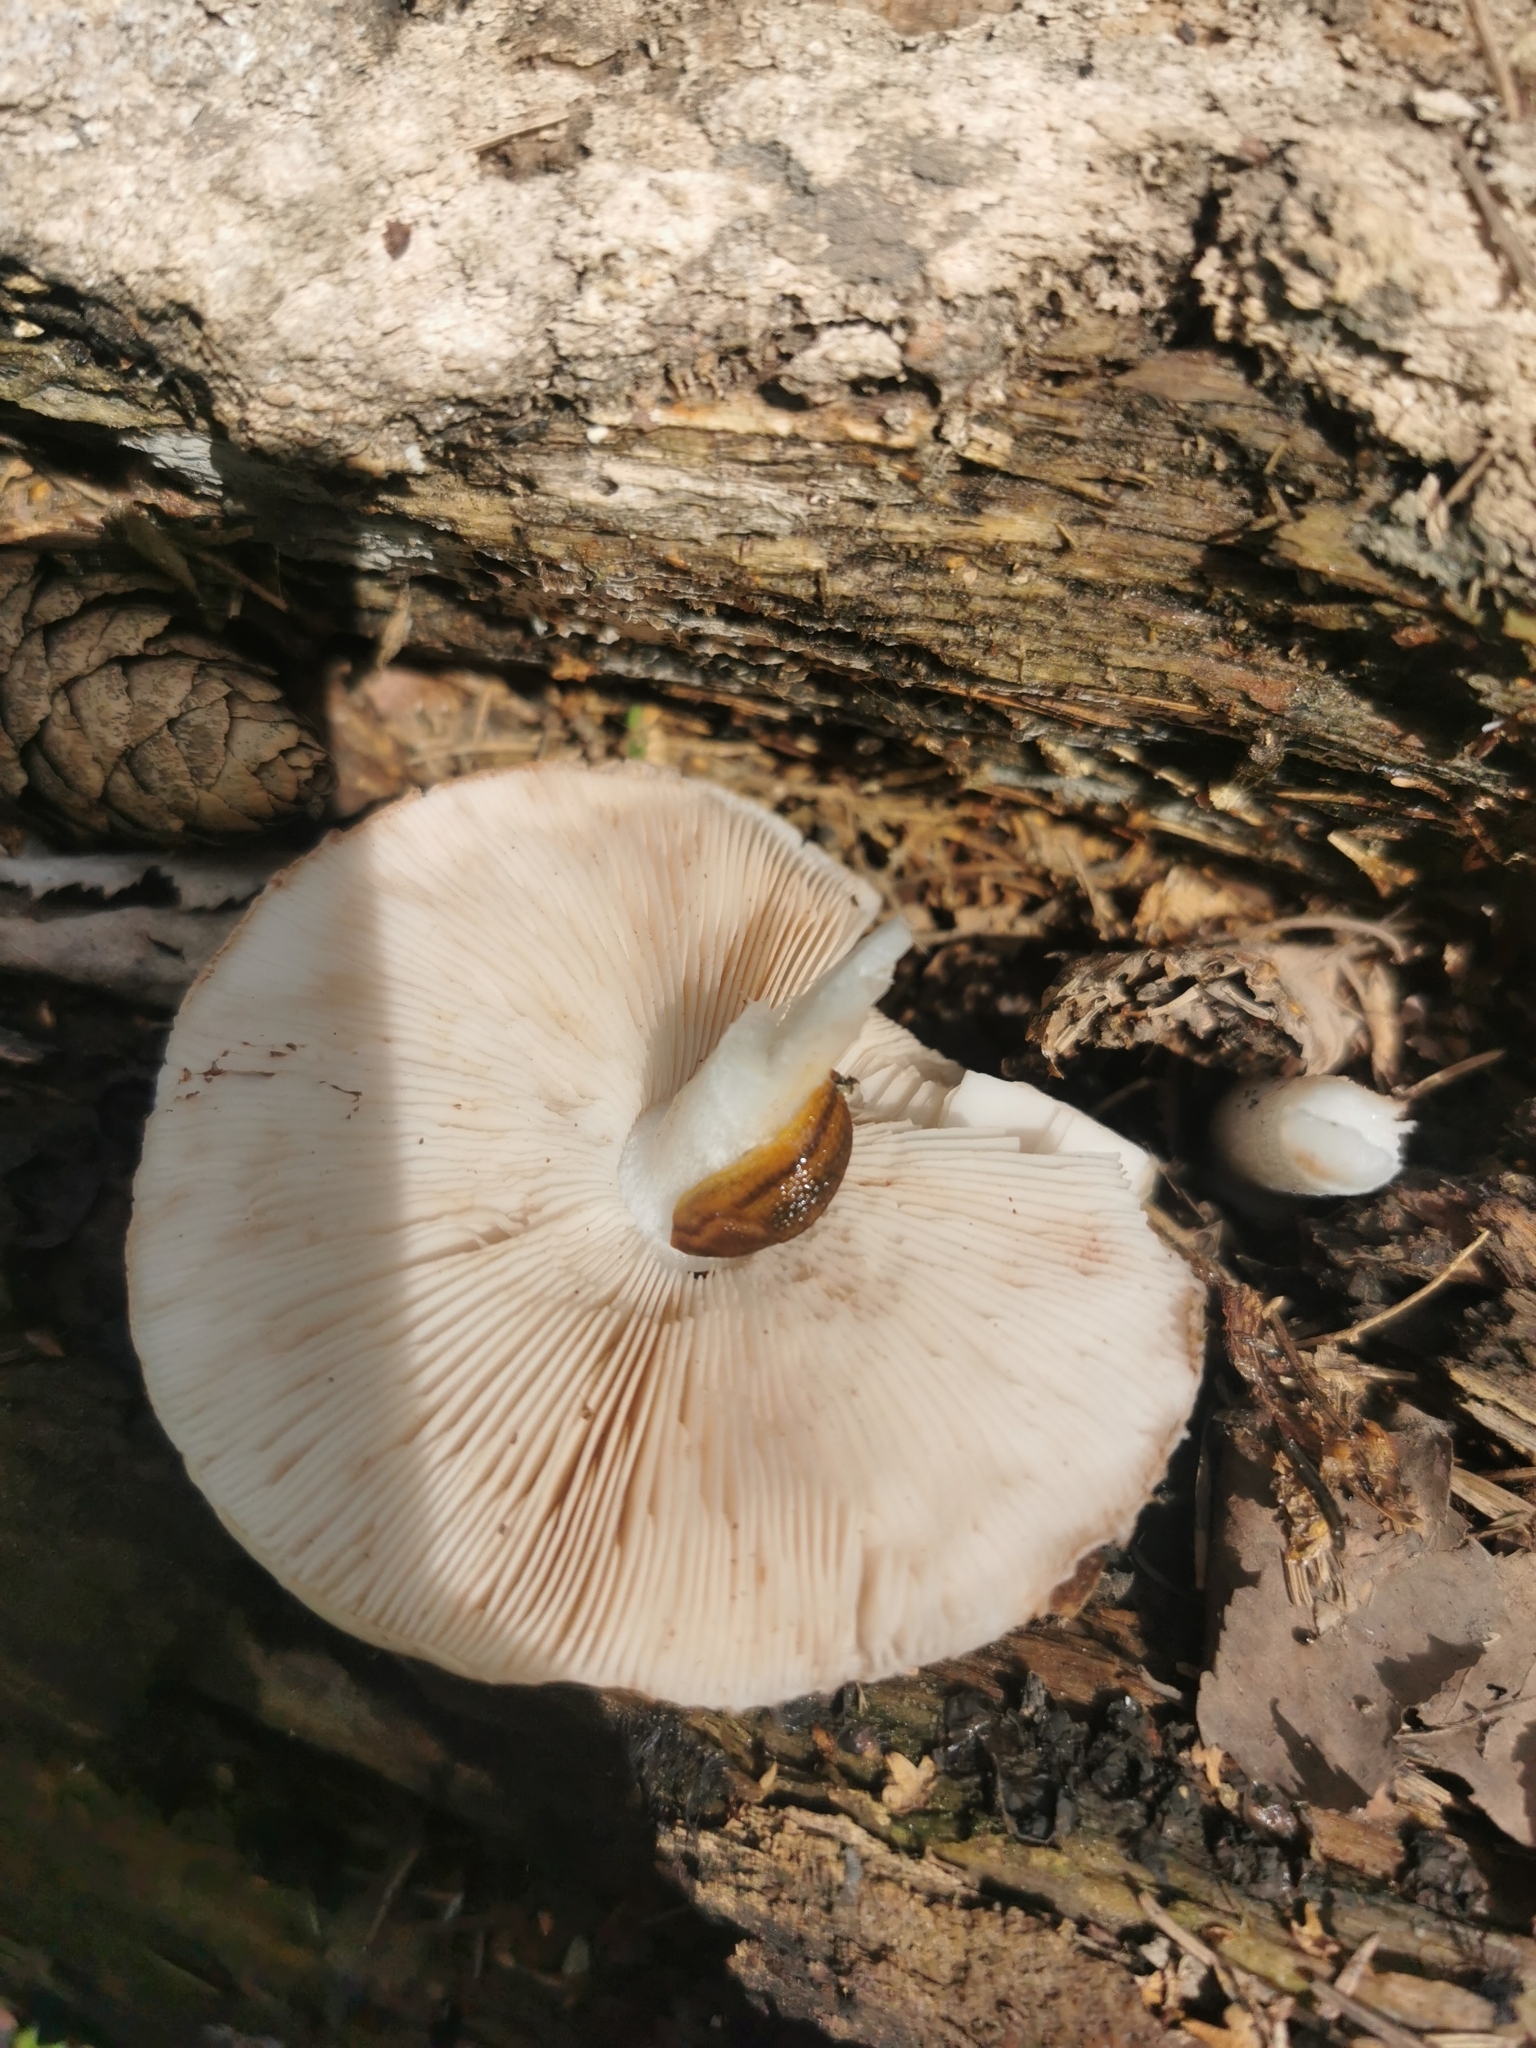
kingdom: Fungi
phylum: Basidiomycota
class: Agaricomycetes
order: Agaricales
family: Pluteaceae
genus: Pluteus
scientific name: Pluteus cervinus
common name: Deer shield
